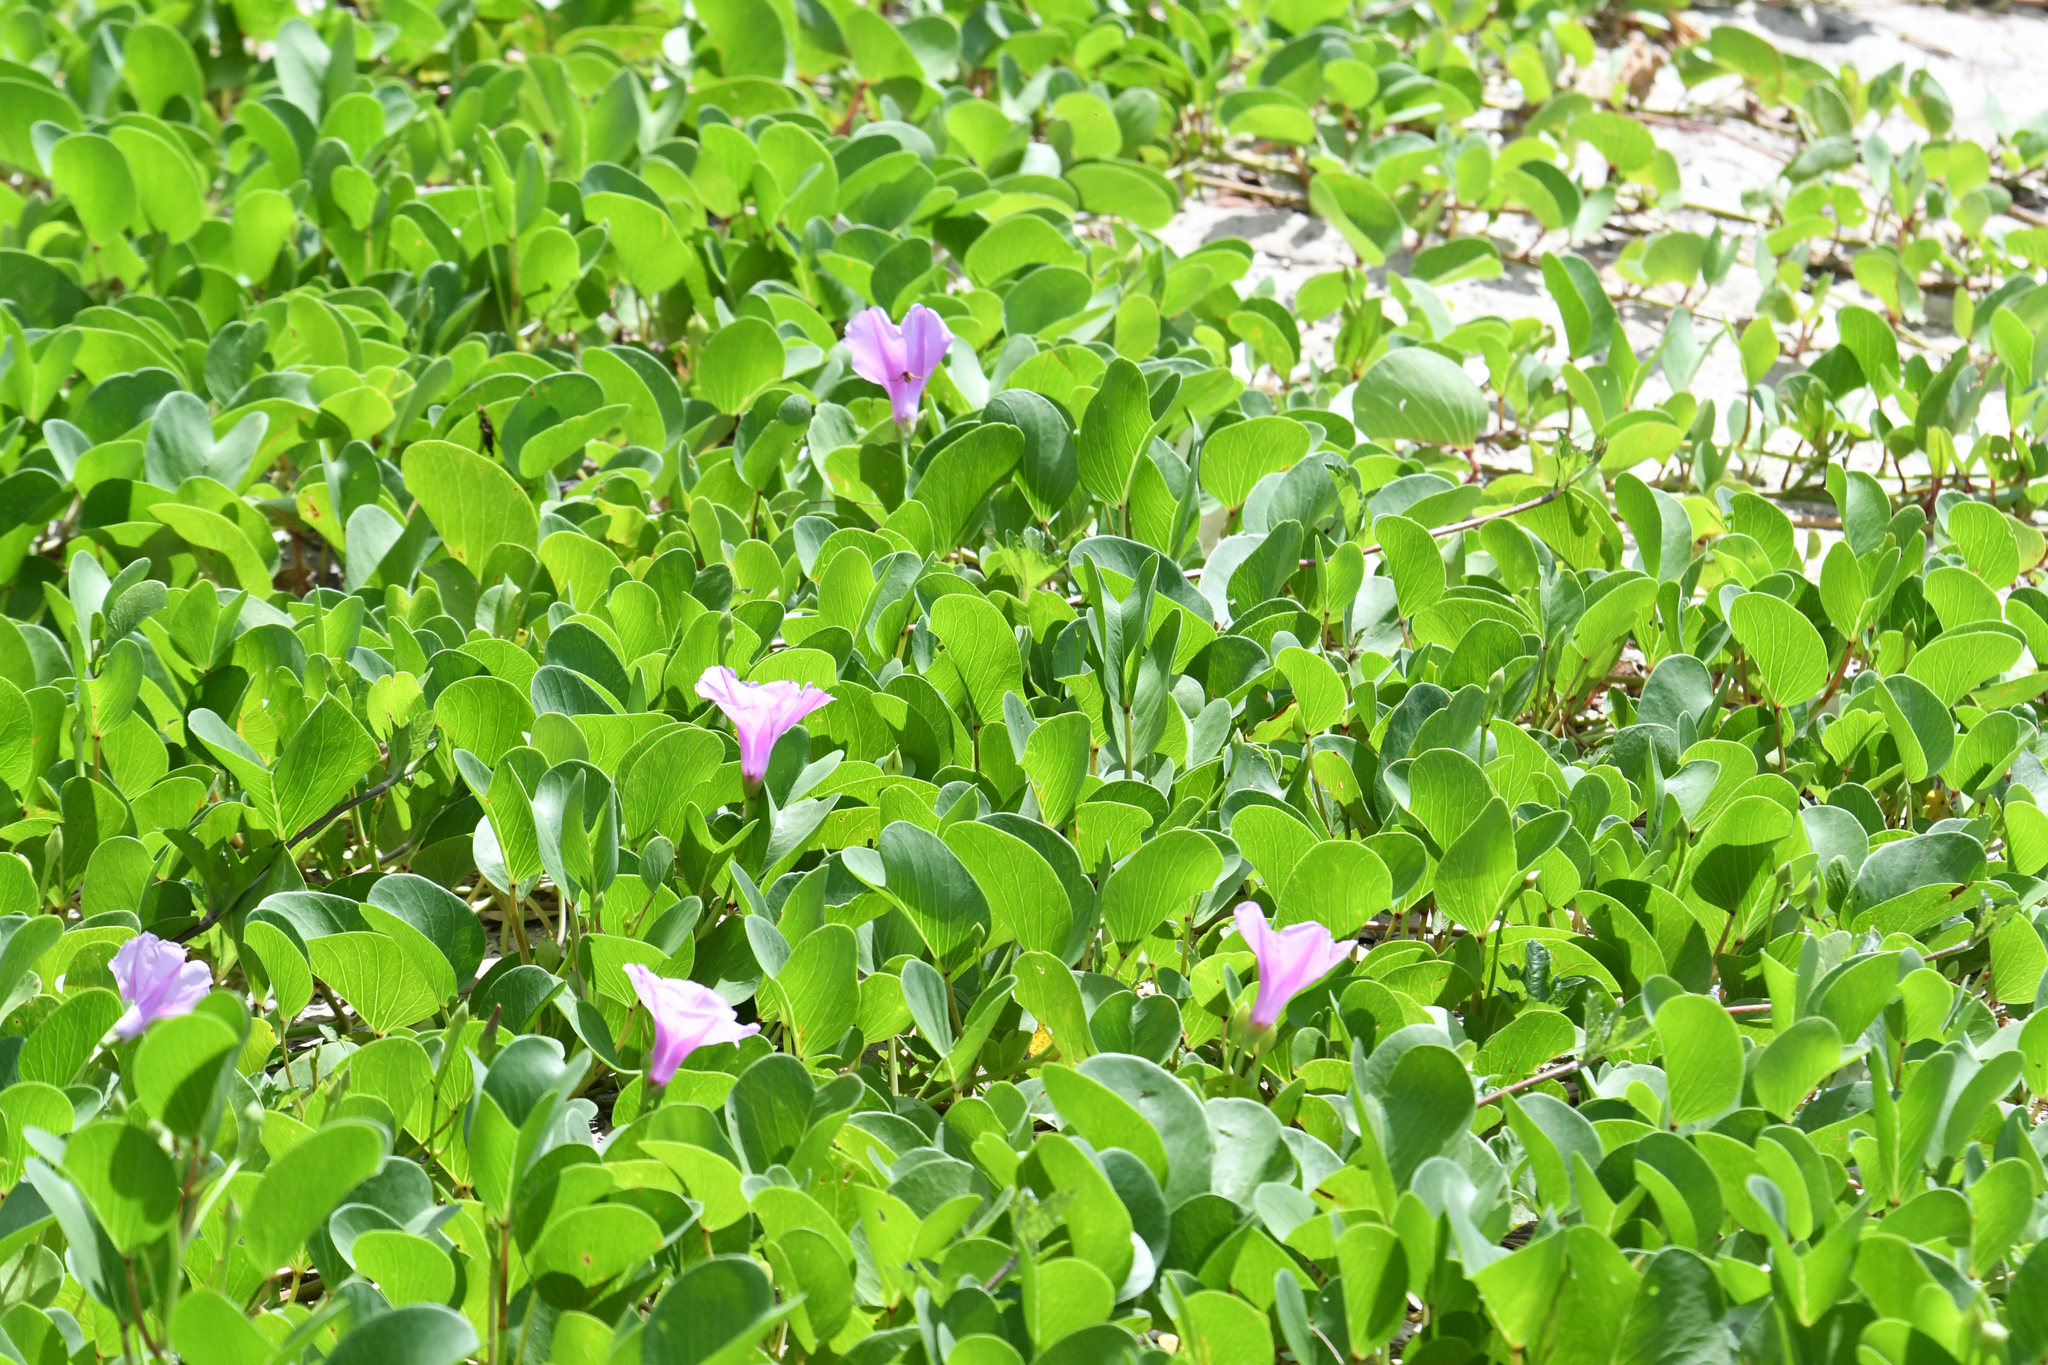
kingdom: Plantae
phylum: Tracheophyta
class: Magnoliopsida
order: Solanales
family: Convolvulaceae
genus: Ipomoea
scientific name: Ipomoea pes-caprae
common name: Beach morning glory
